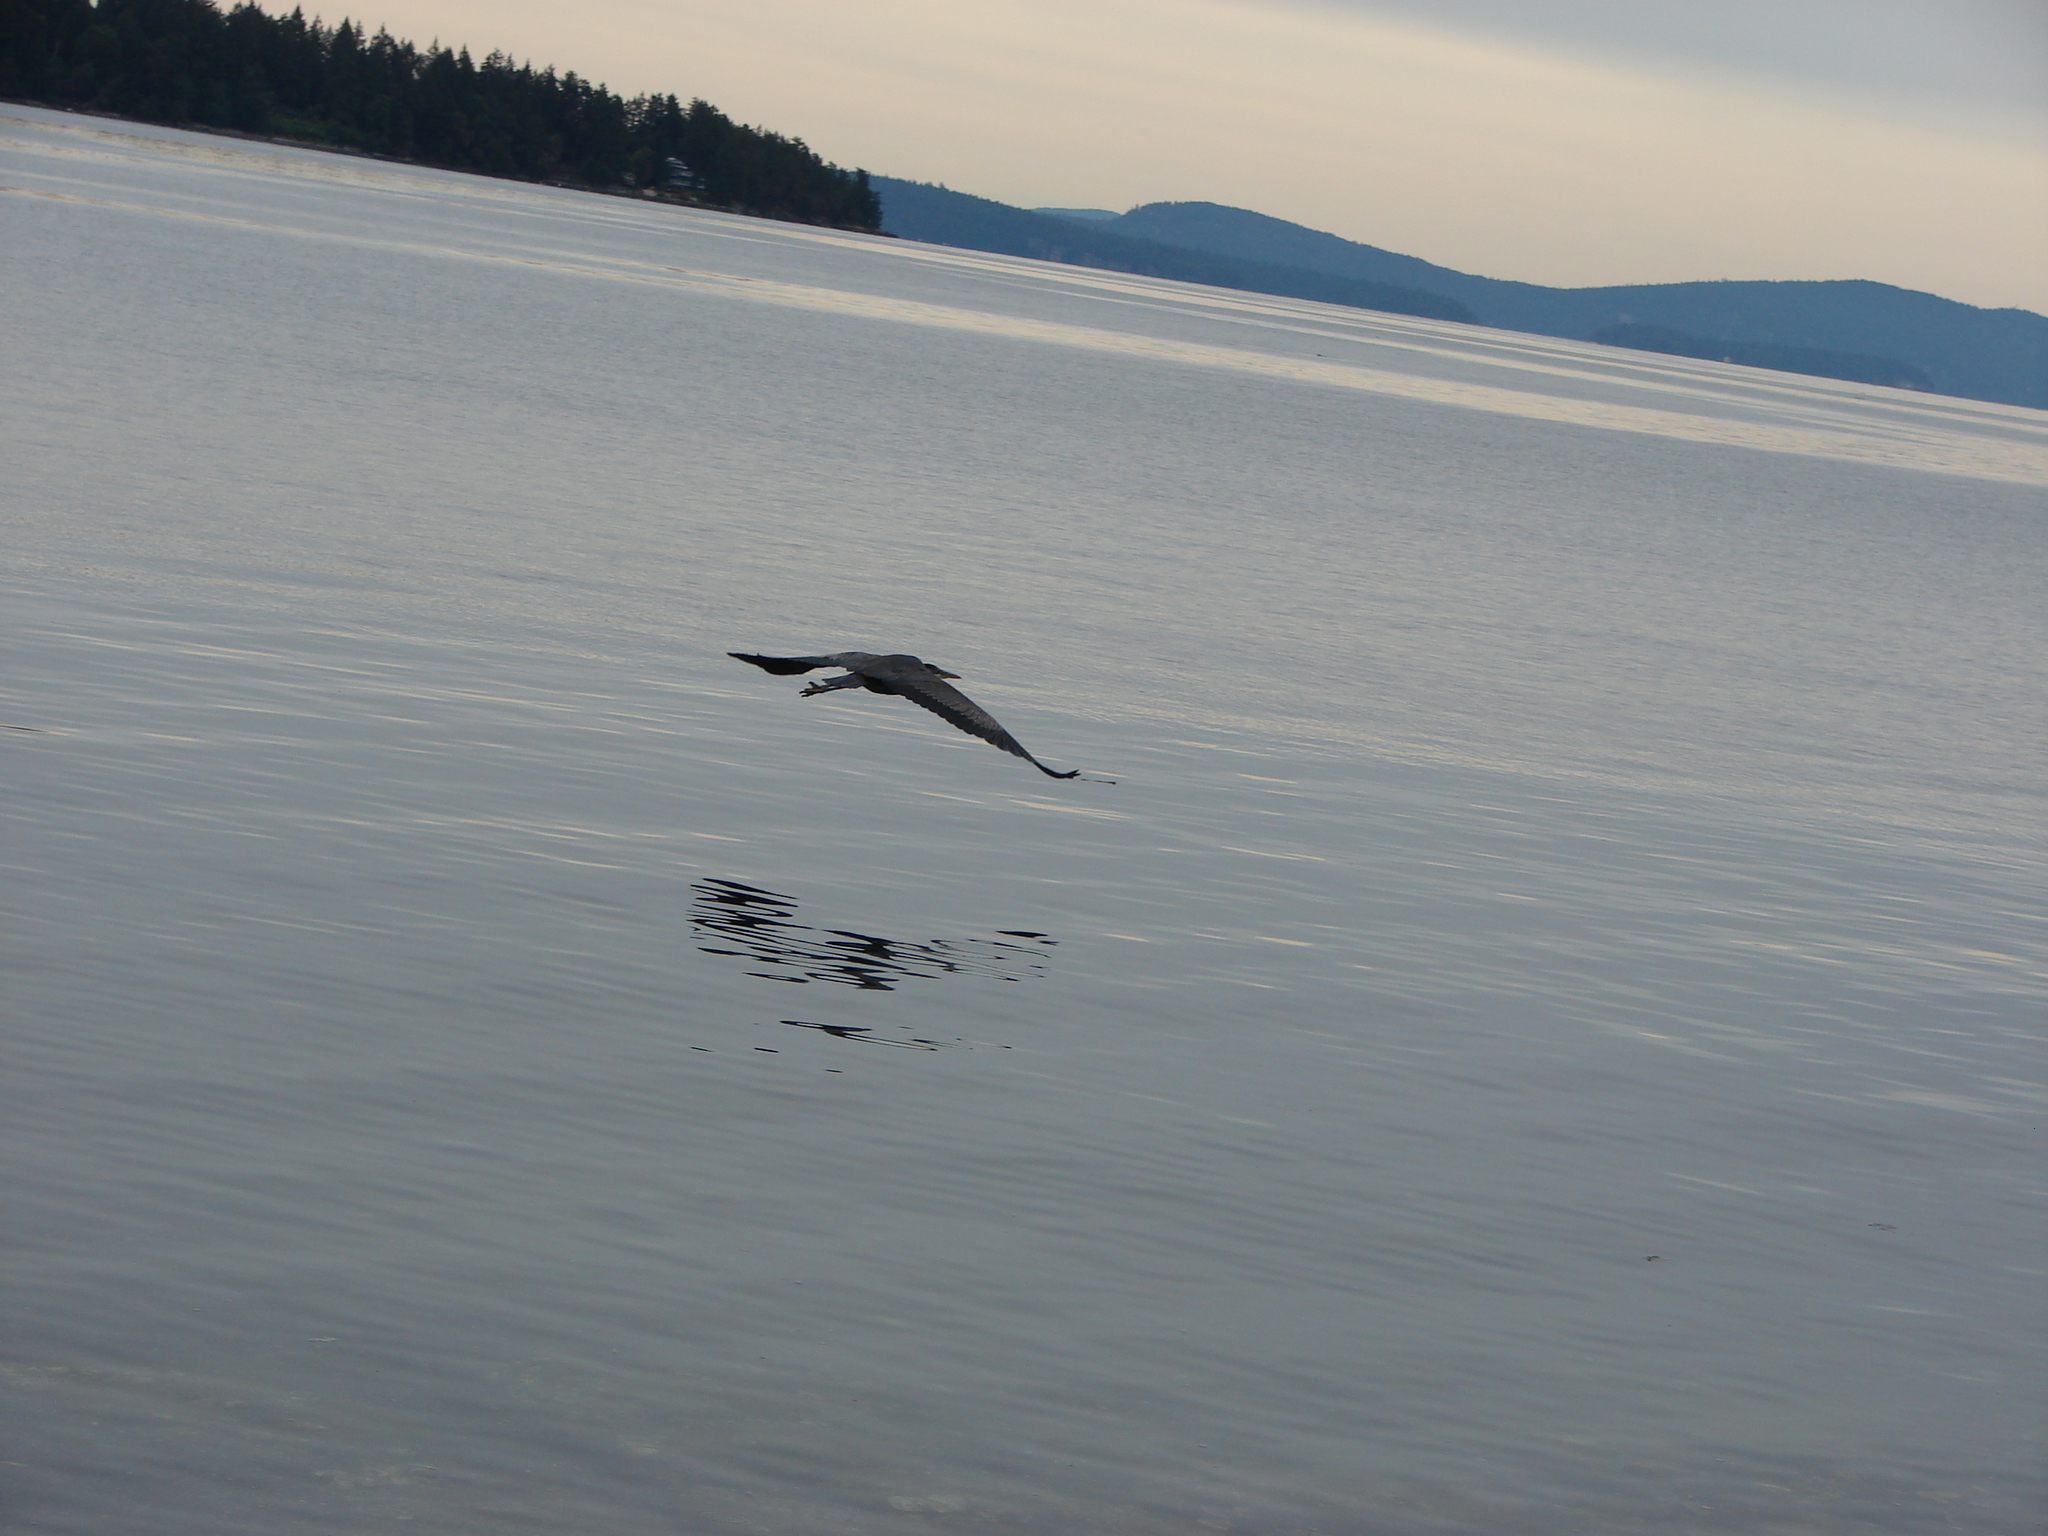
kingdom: Animalia
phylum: Chordata
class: Aves
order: Pelecaniformes
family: Ardeidae
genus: Ardea
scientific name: Ardea herodias
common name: Great blue heron
